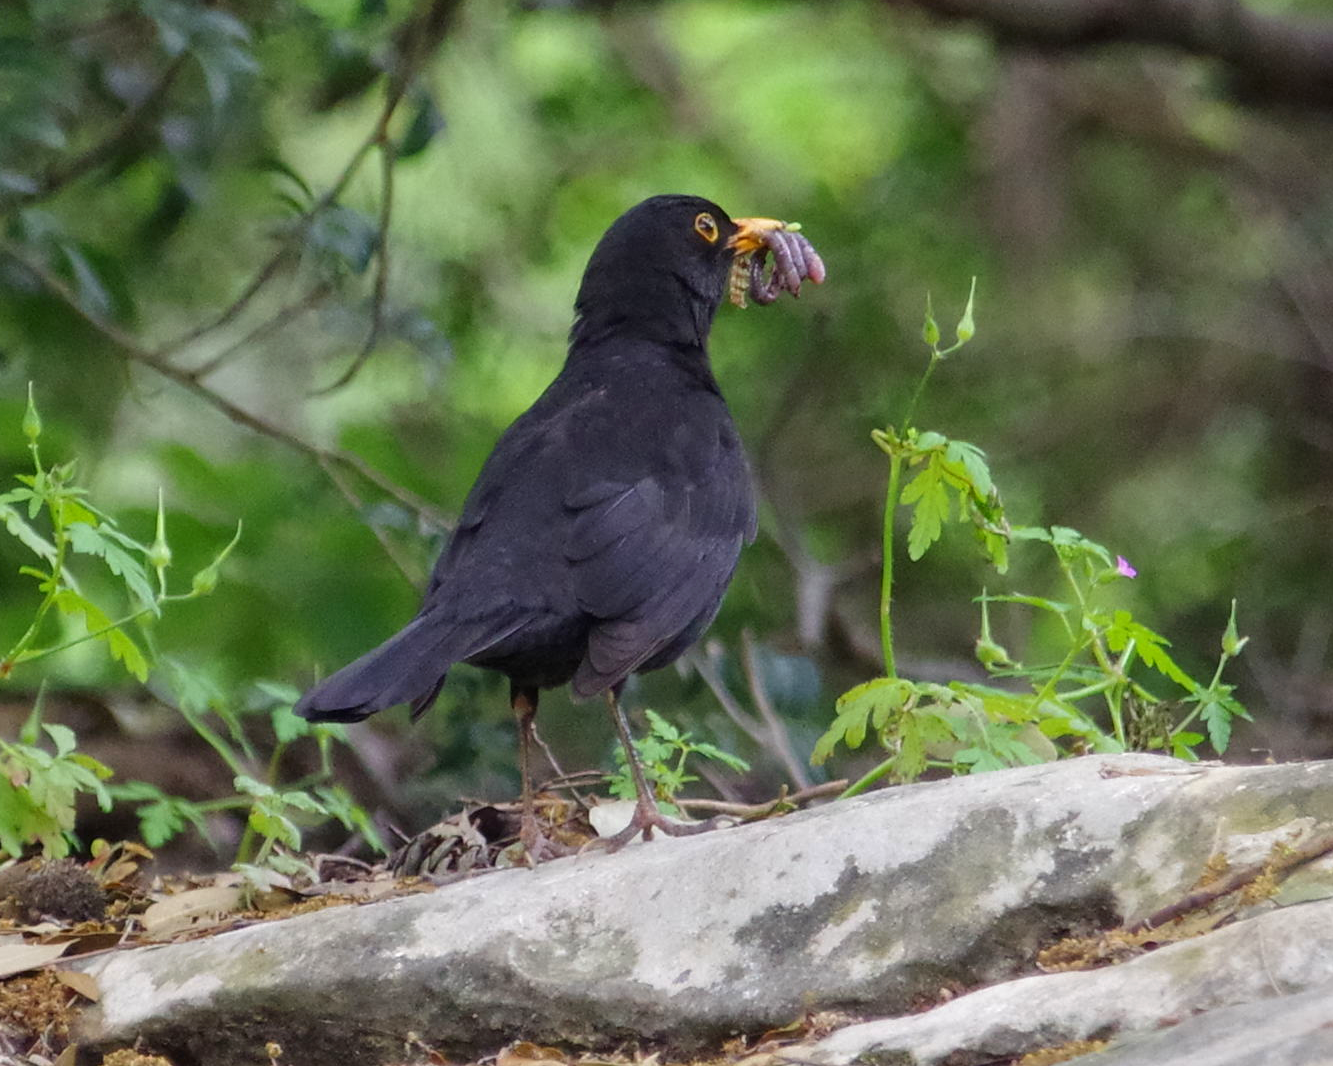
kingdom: Animalia
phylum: Chordata
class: Aves
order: Passeriformes
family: Turdidae
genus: Turdus
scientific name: Turdus merula
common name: Common blackbird
